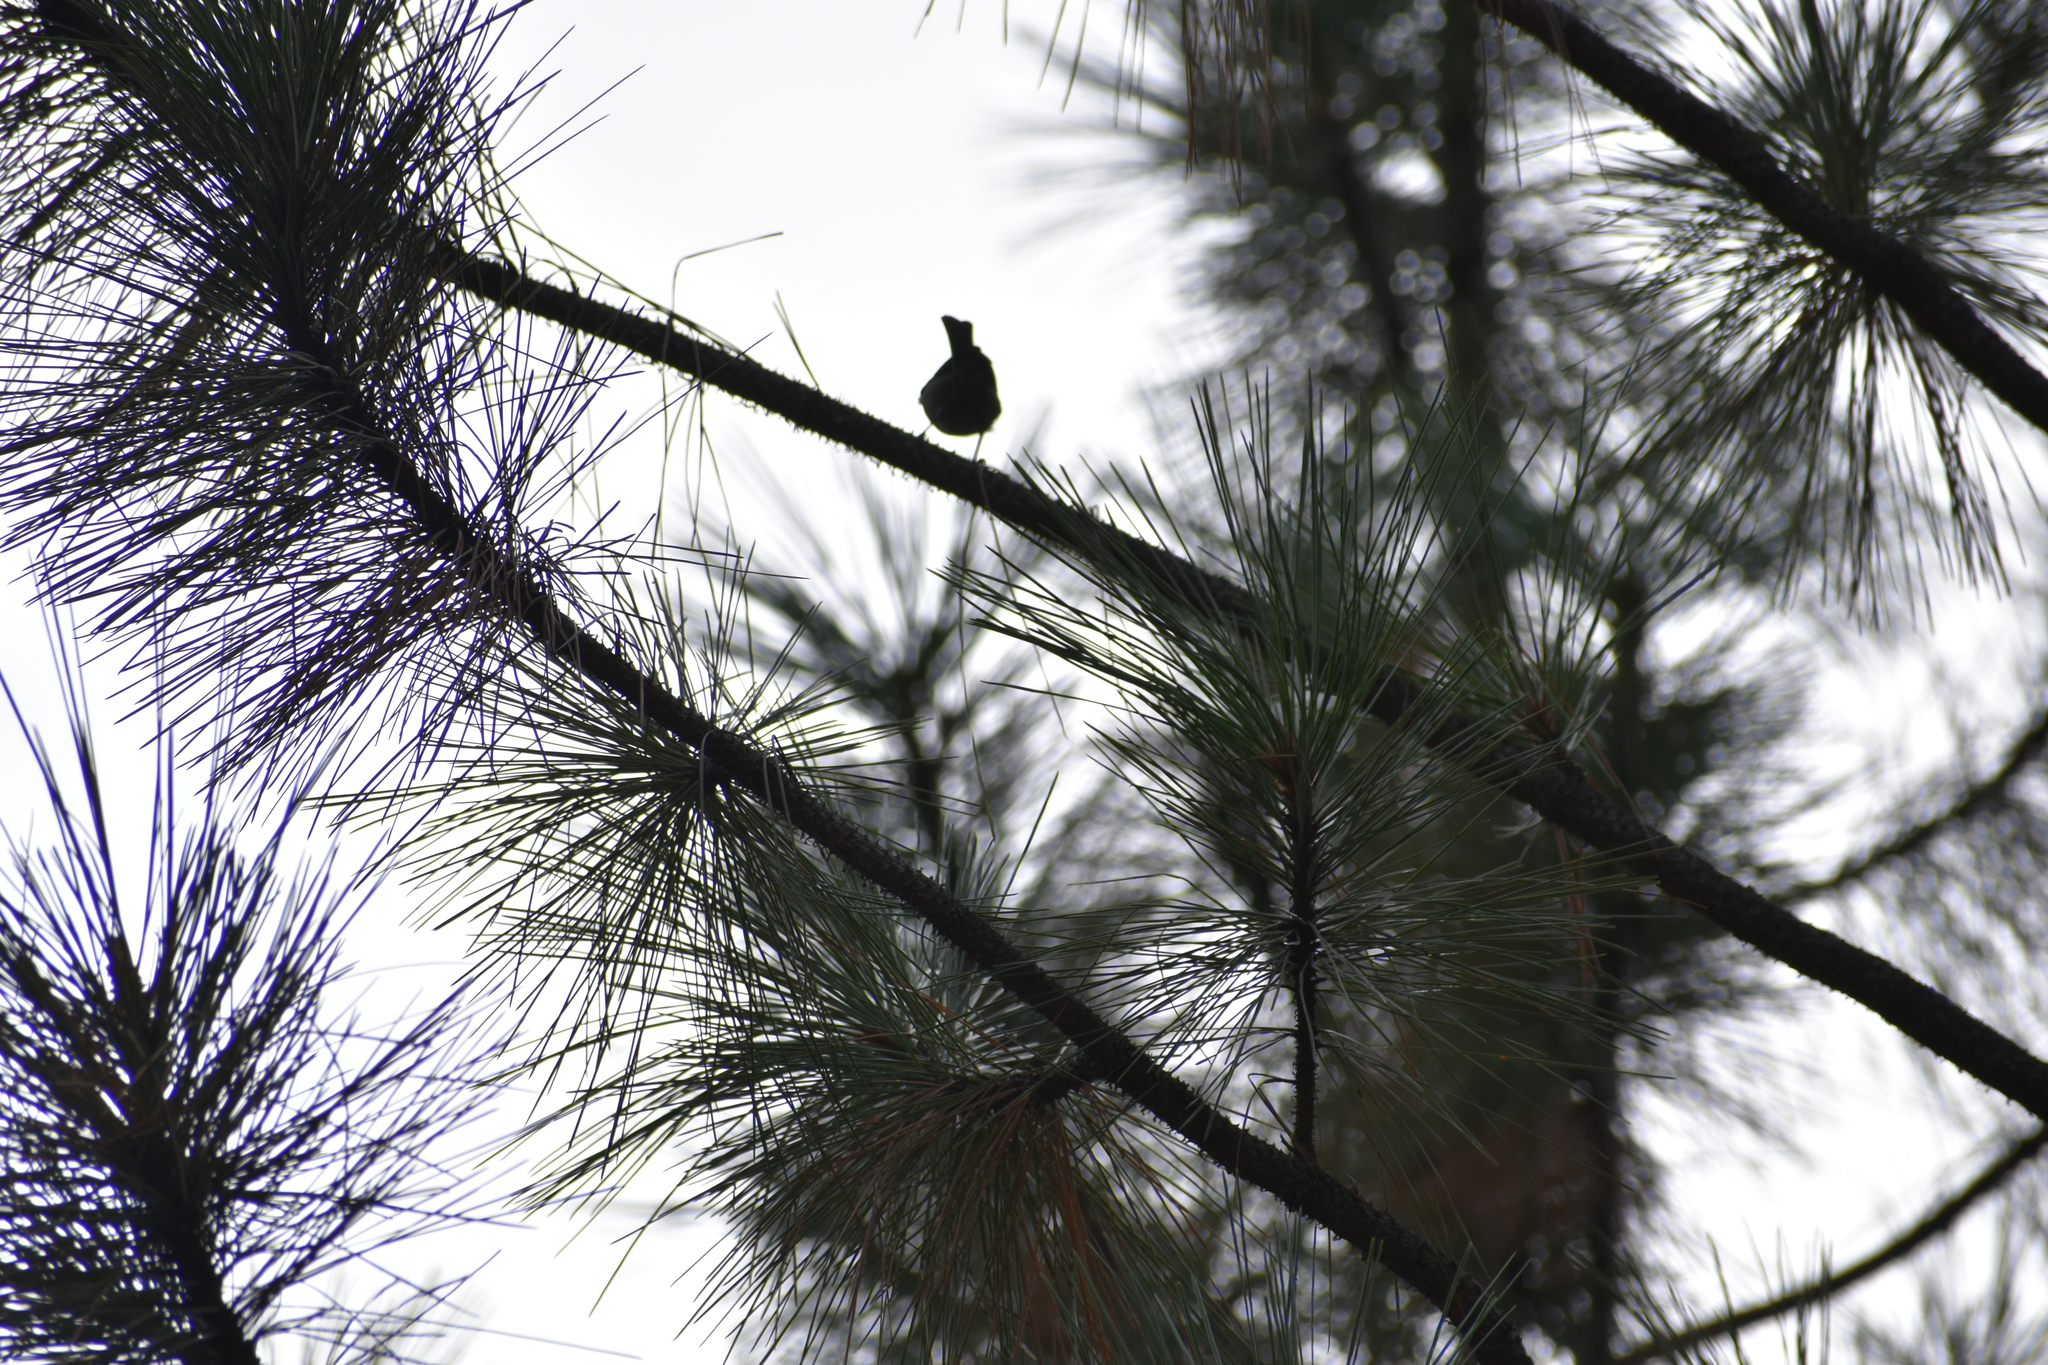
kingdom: Animalia
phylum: Chordata
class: Aves
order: Passeriformes
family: Paridae
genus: Poecile
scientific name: Poecile gambeli
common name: Mountain chickadee
